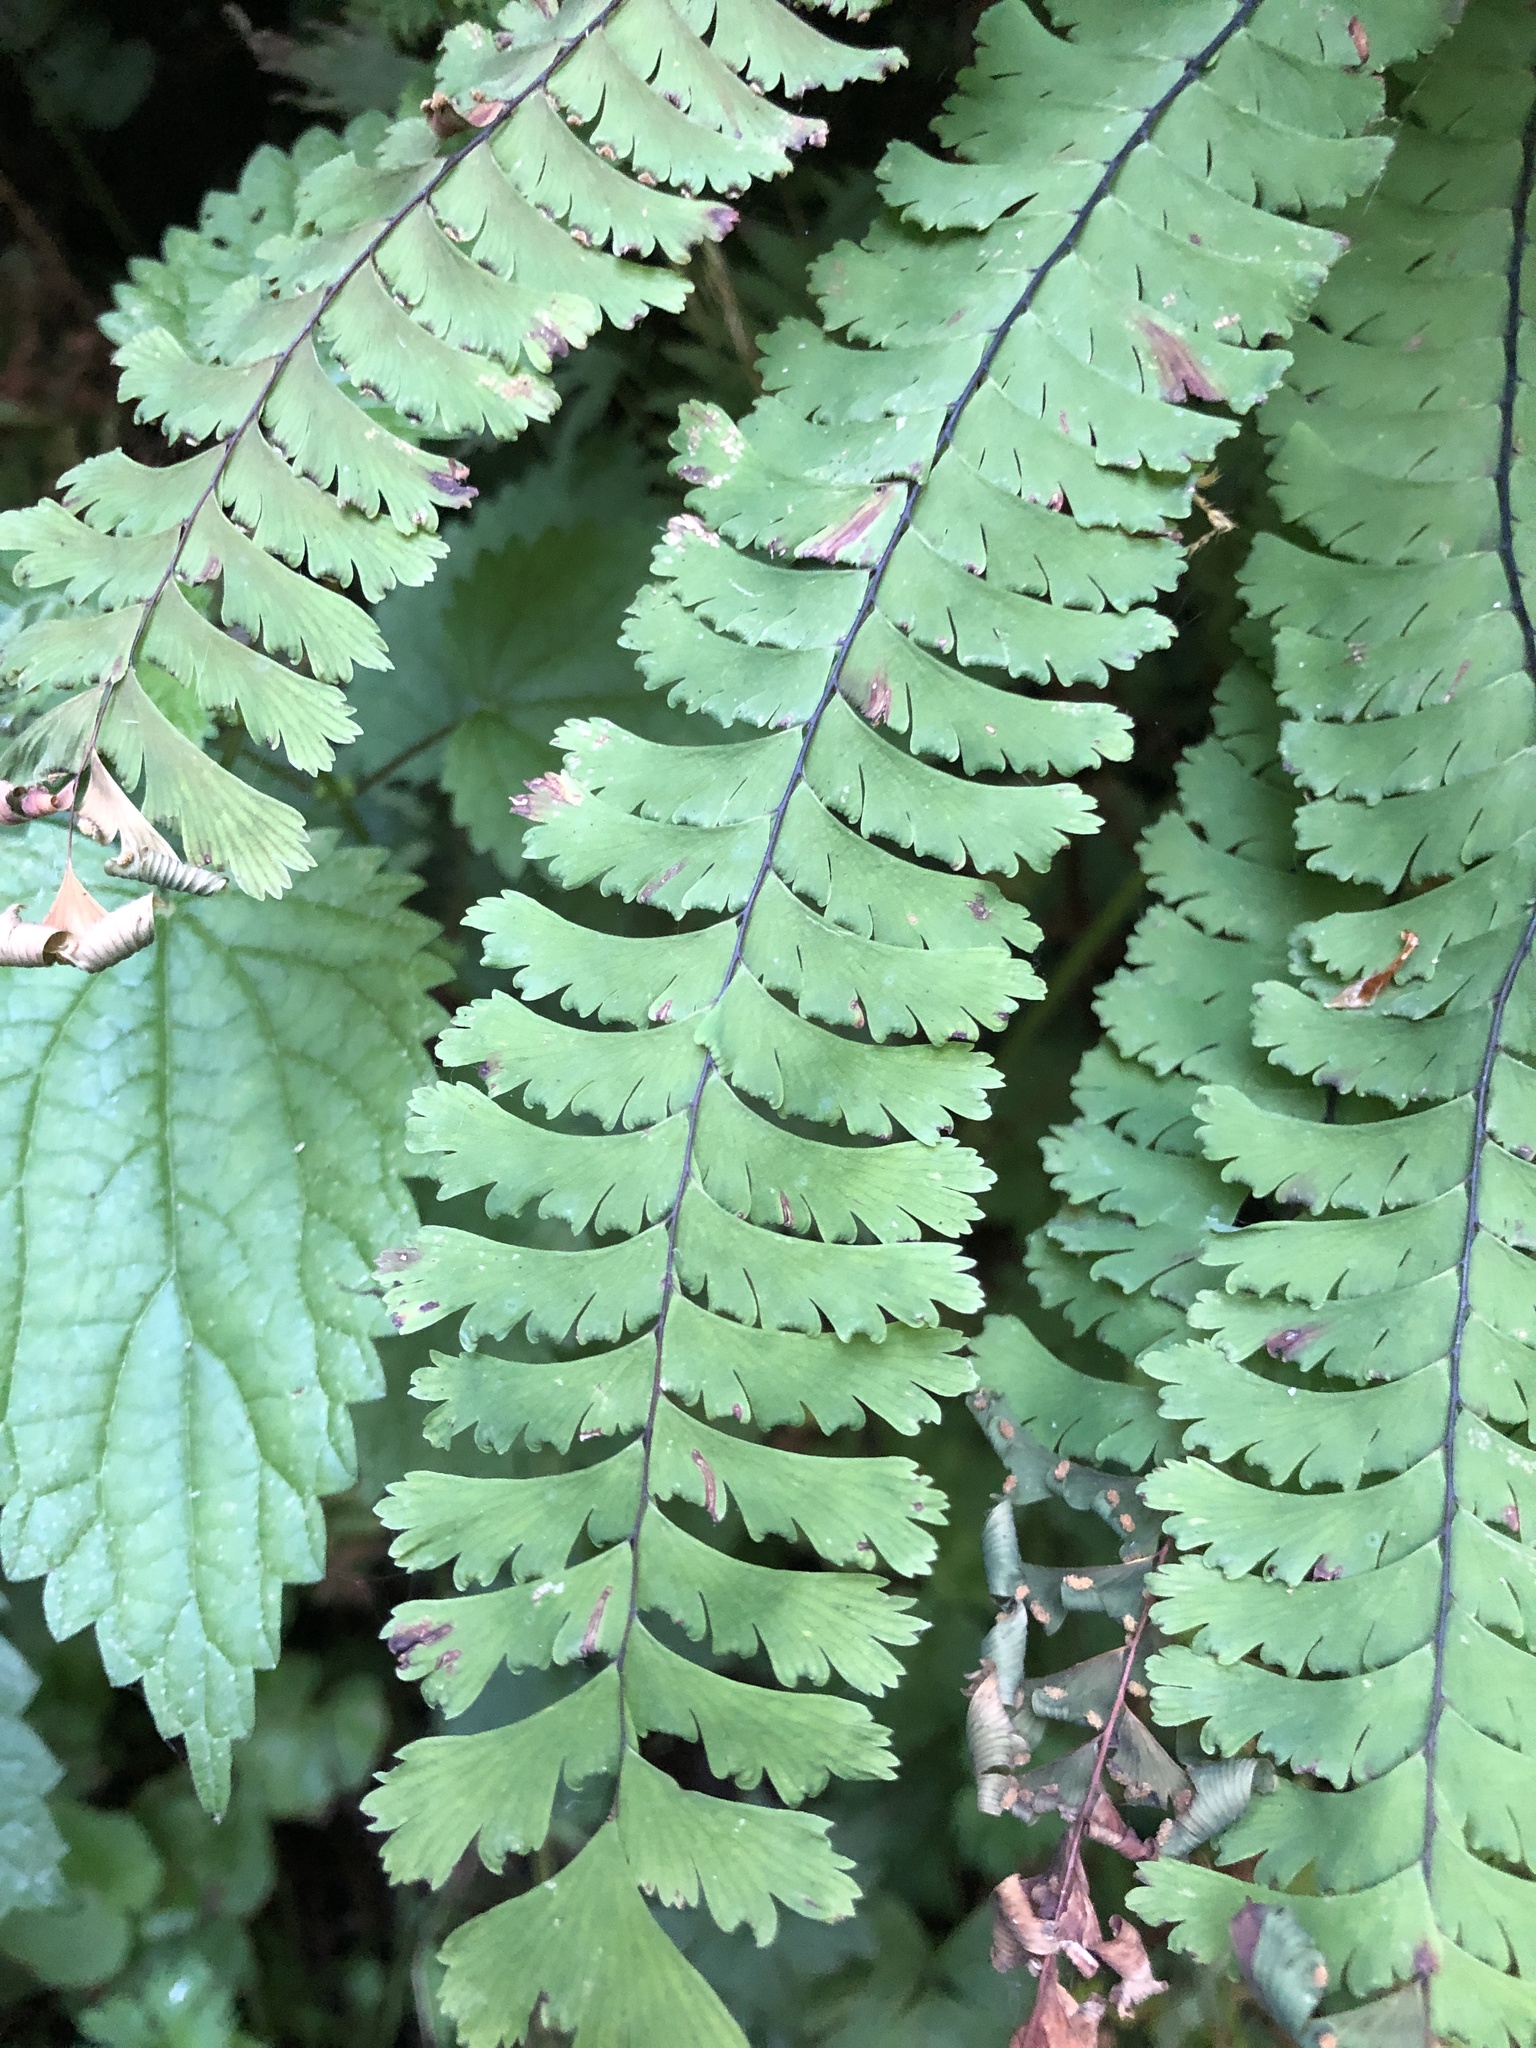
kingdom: Plantae
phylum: Tracheophyta
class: Polypodiopsida
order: Polypodiales
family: Pteridaceae
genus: Adiantum
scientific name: Adiantum aleuticum
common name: Aleutian maidenhair fern
